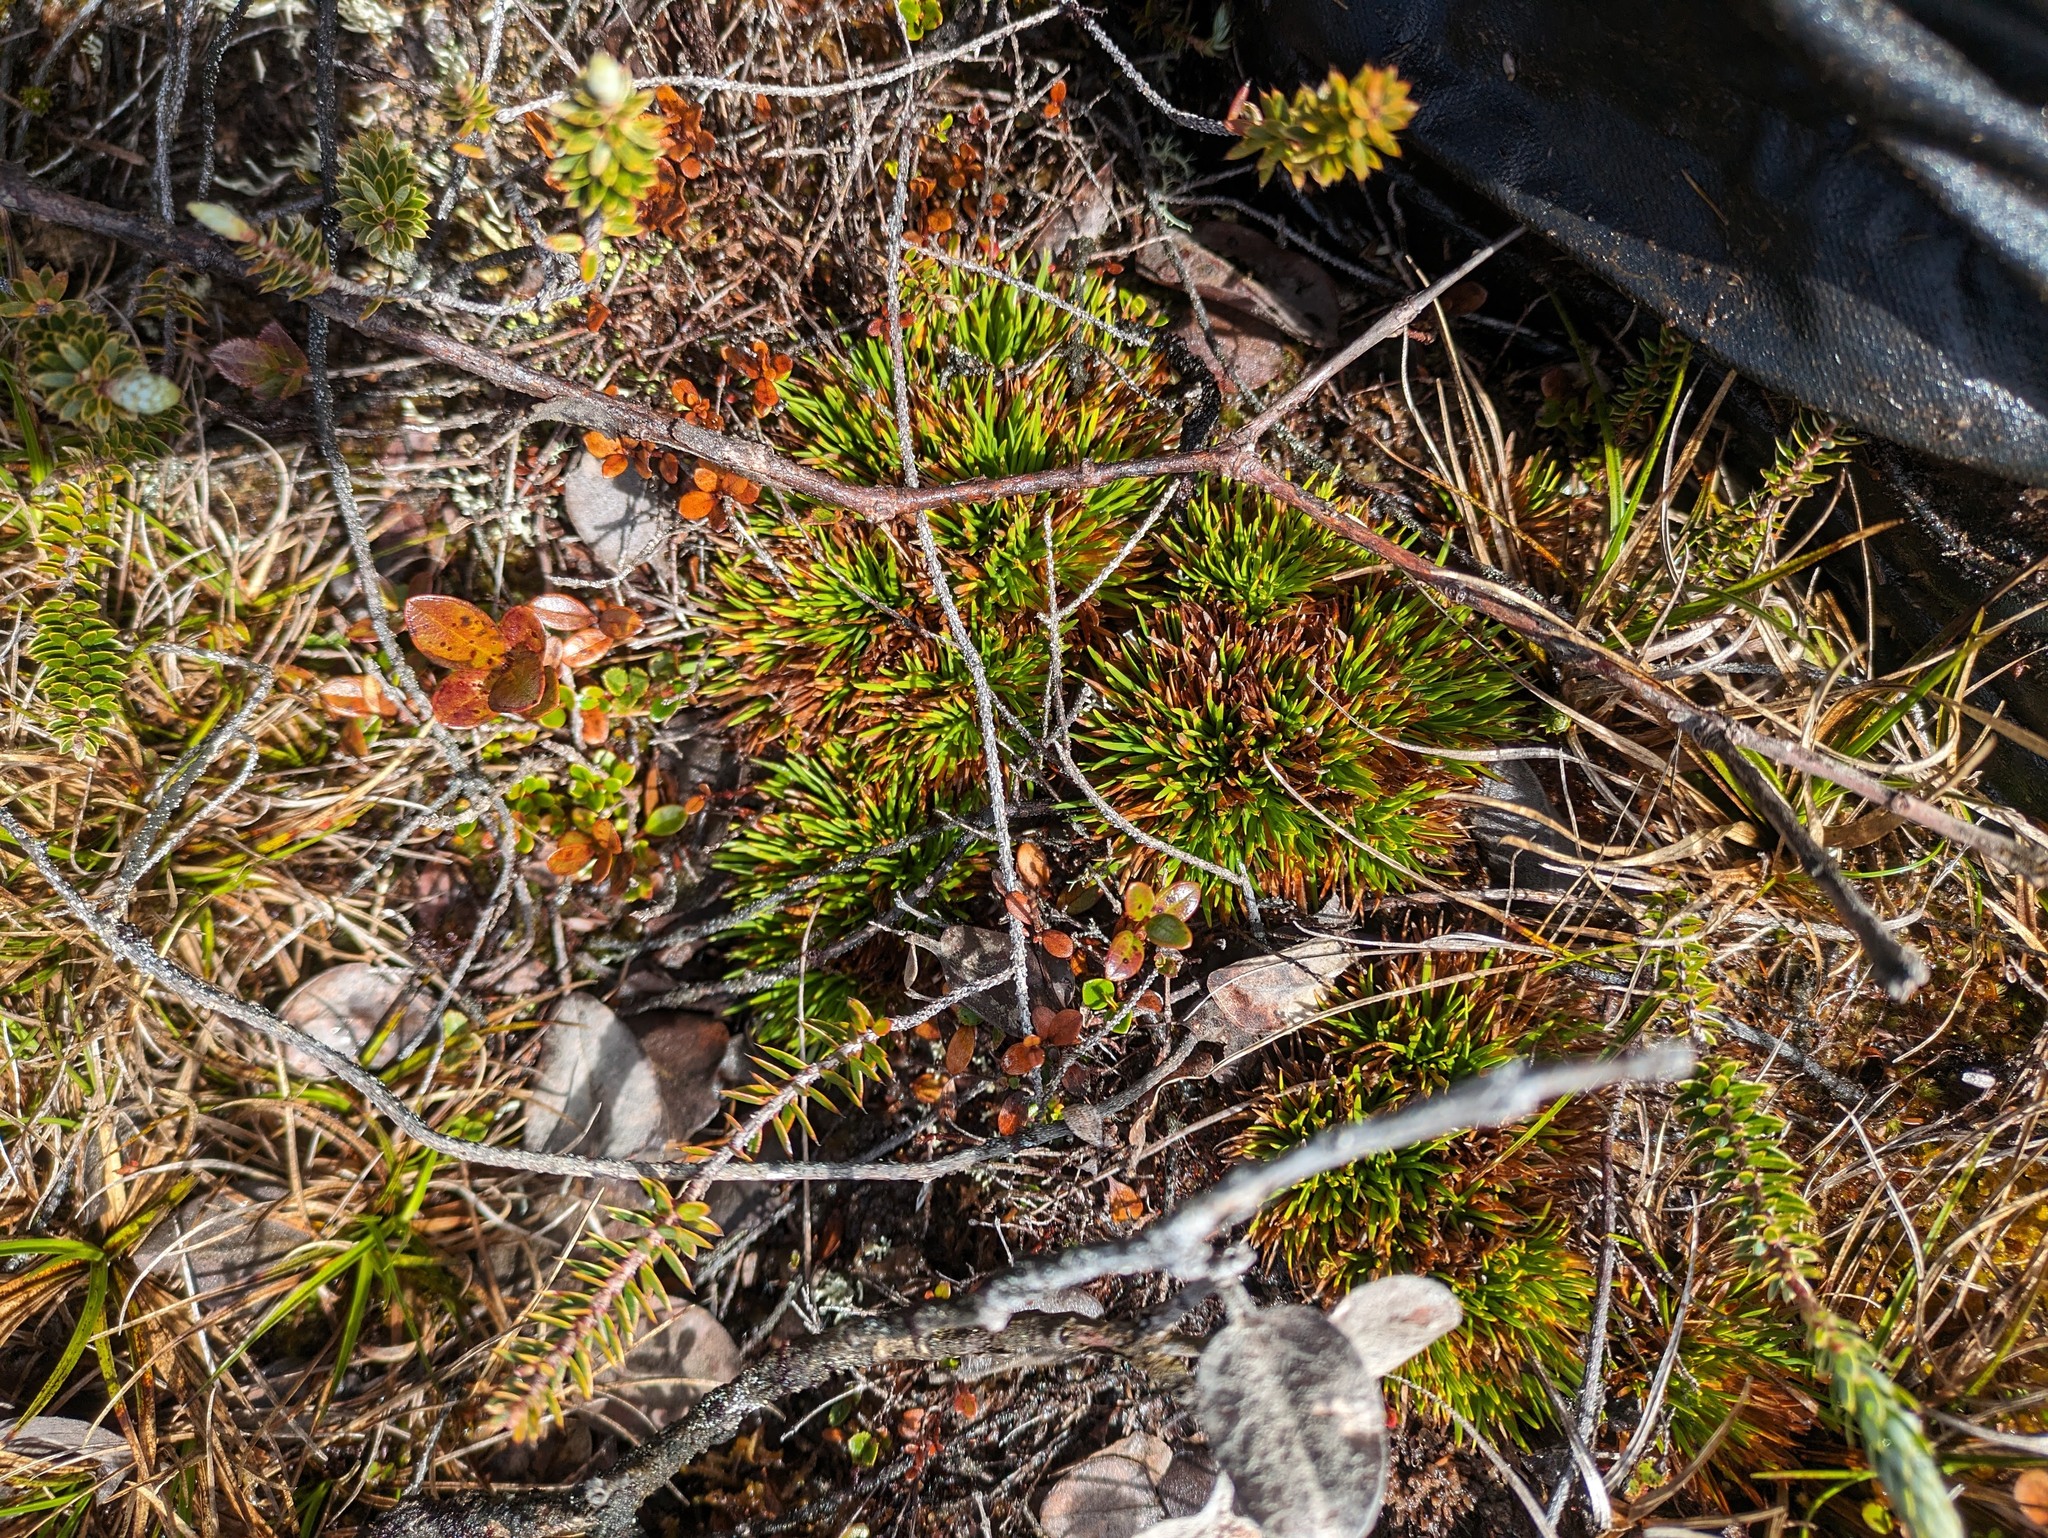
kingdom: Plantae
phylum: Tracheophyta
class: Liliopsida
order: Poales
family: Cyperaceae
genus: Oreobolus
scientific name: Oreobolus furcatus
